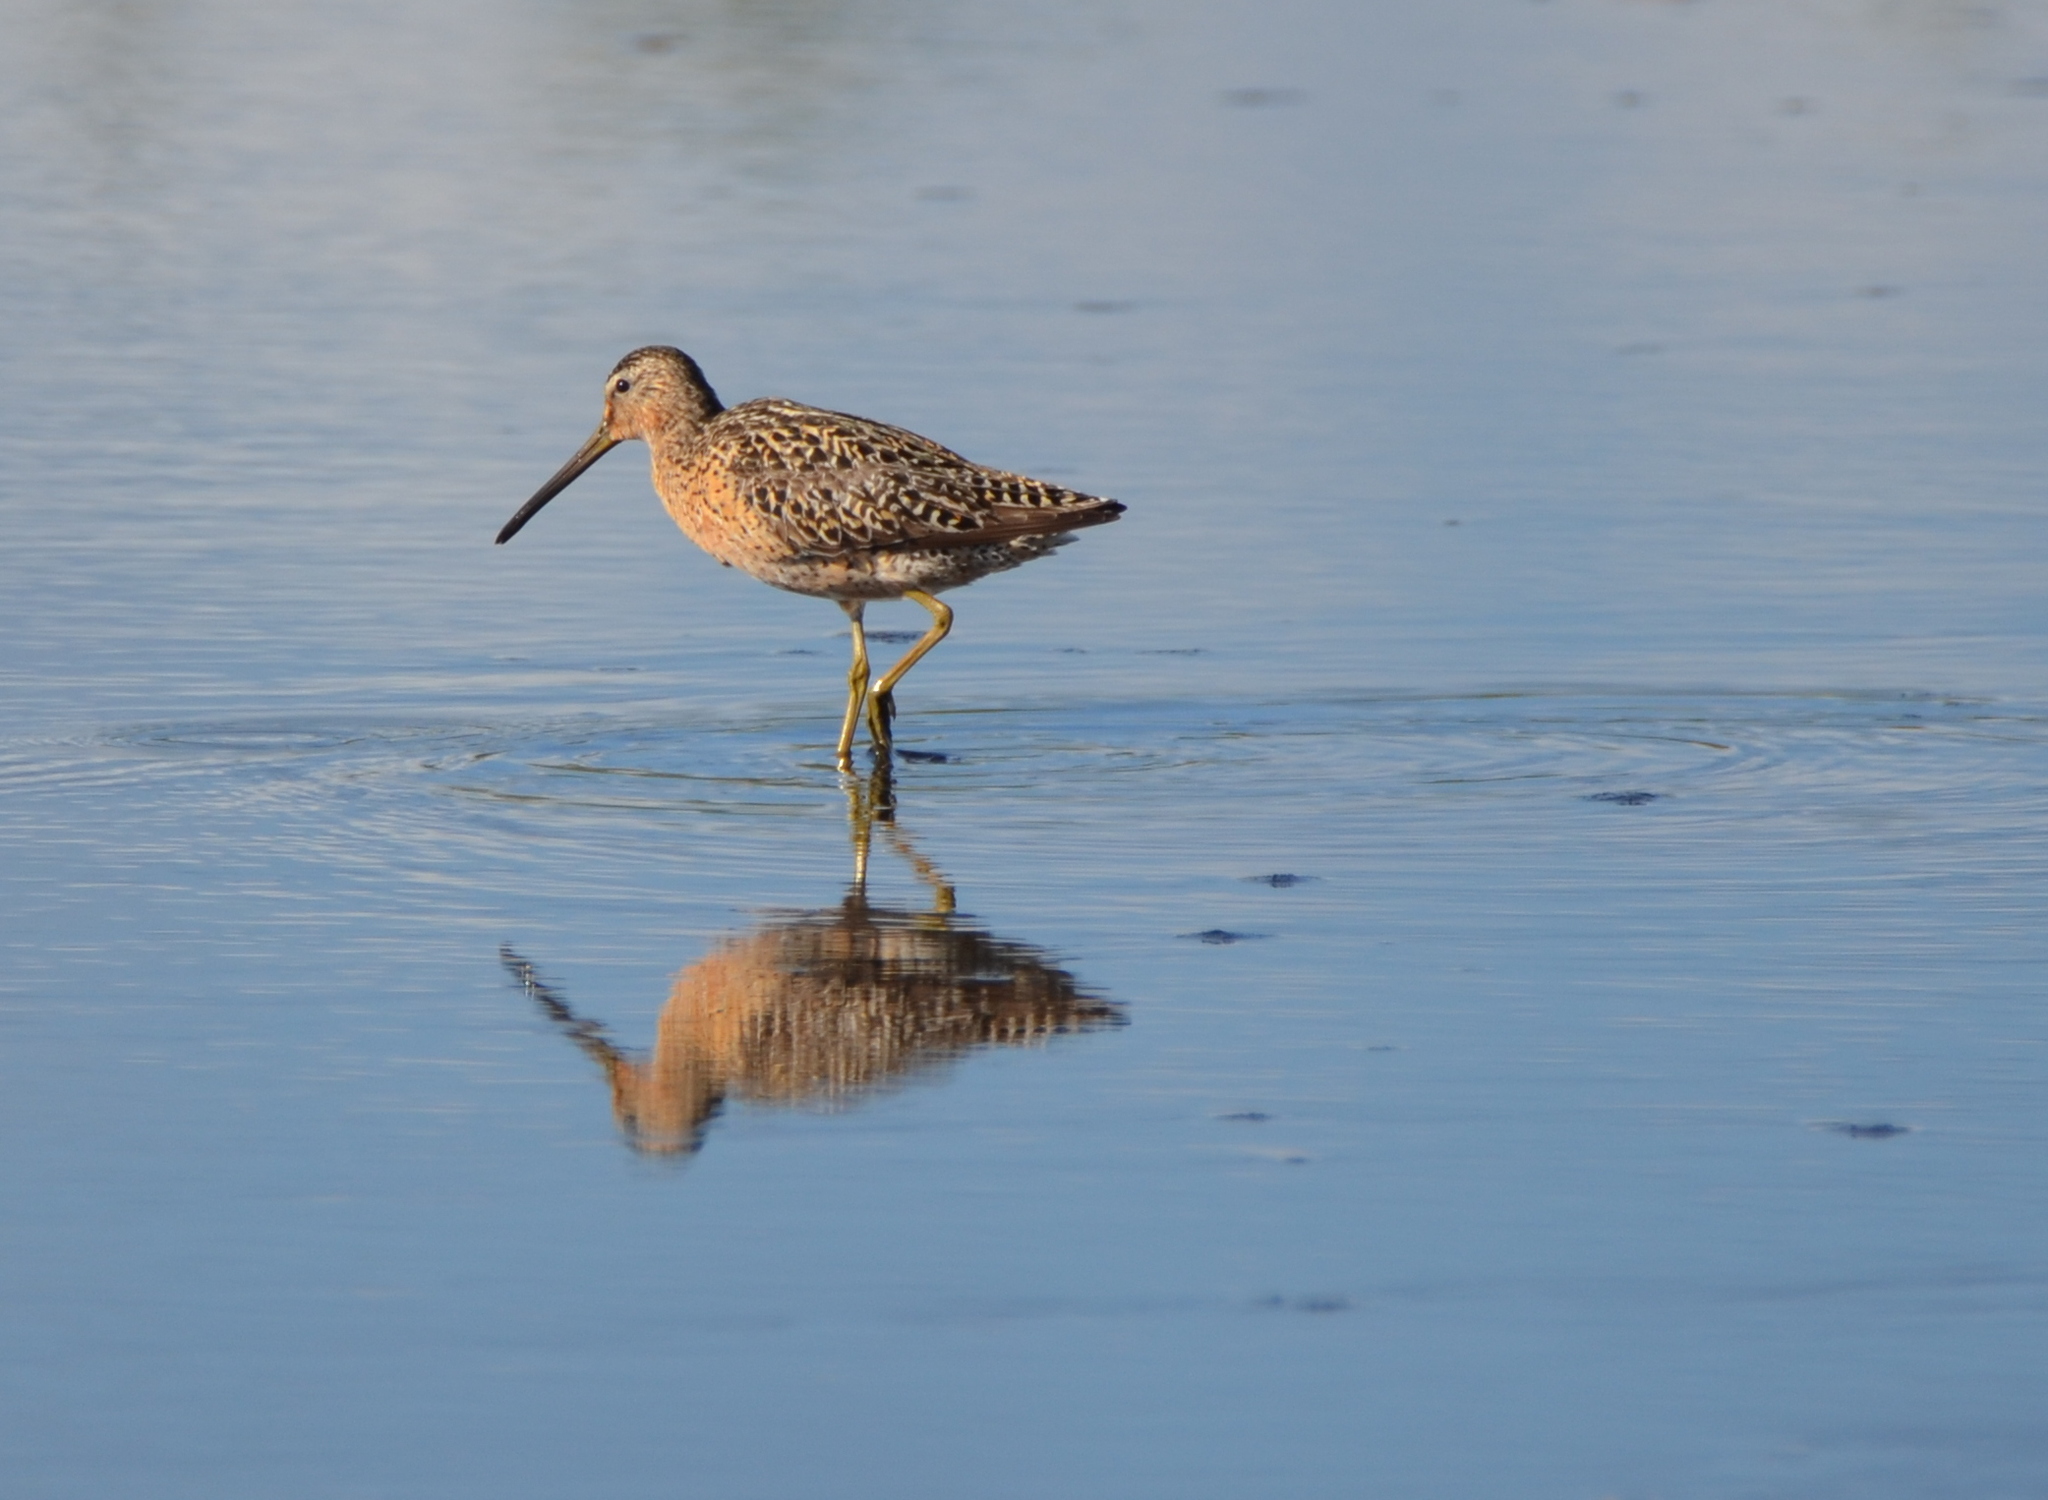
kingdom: Animalia
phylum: Chordata
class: Aves
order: Charadriiformes
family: Scolopacidae
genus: Limnodromus
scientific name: Limnodromus griseus
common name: Short-billed dowitcher
